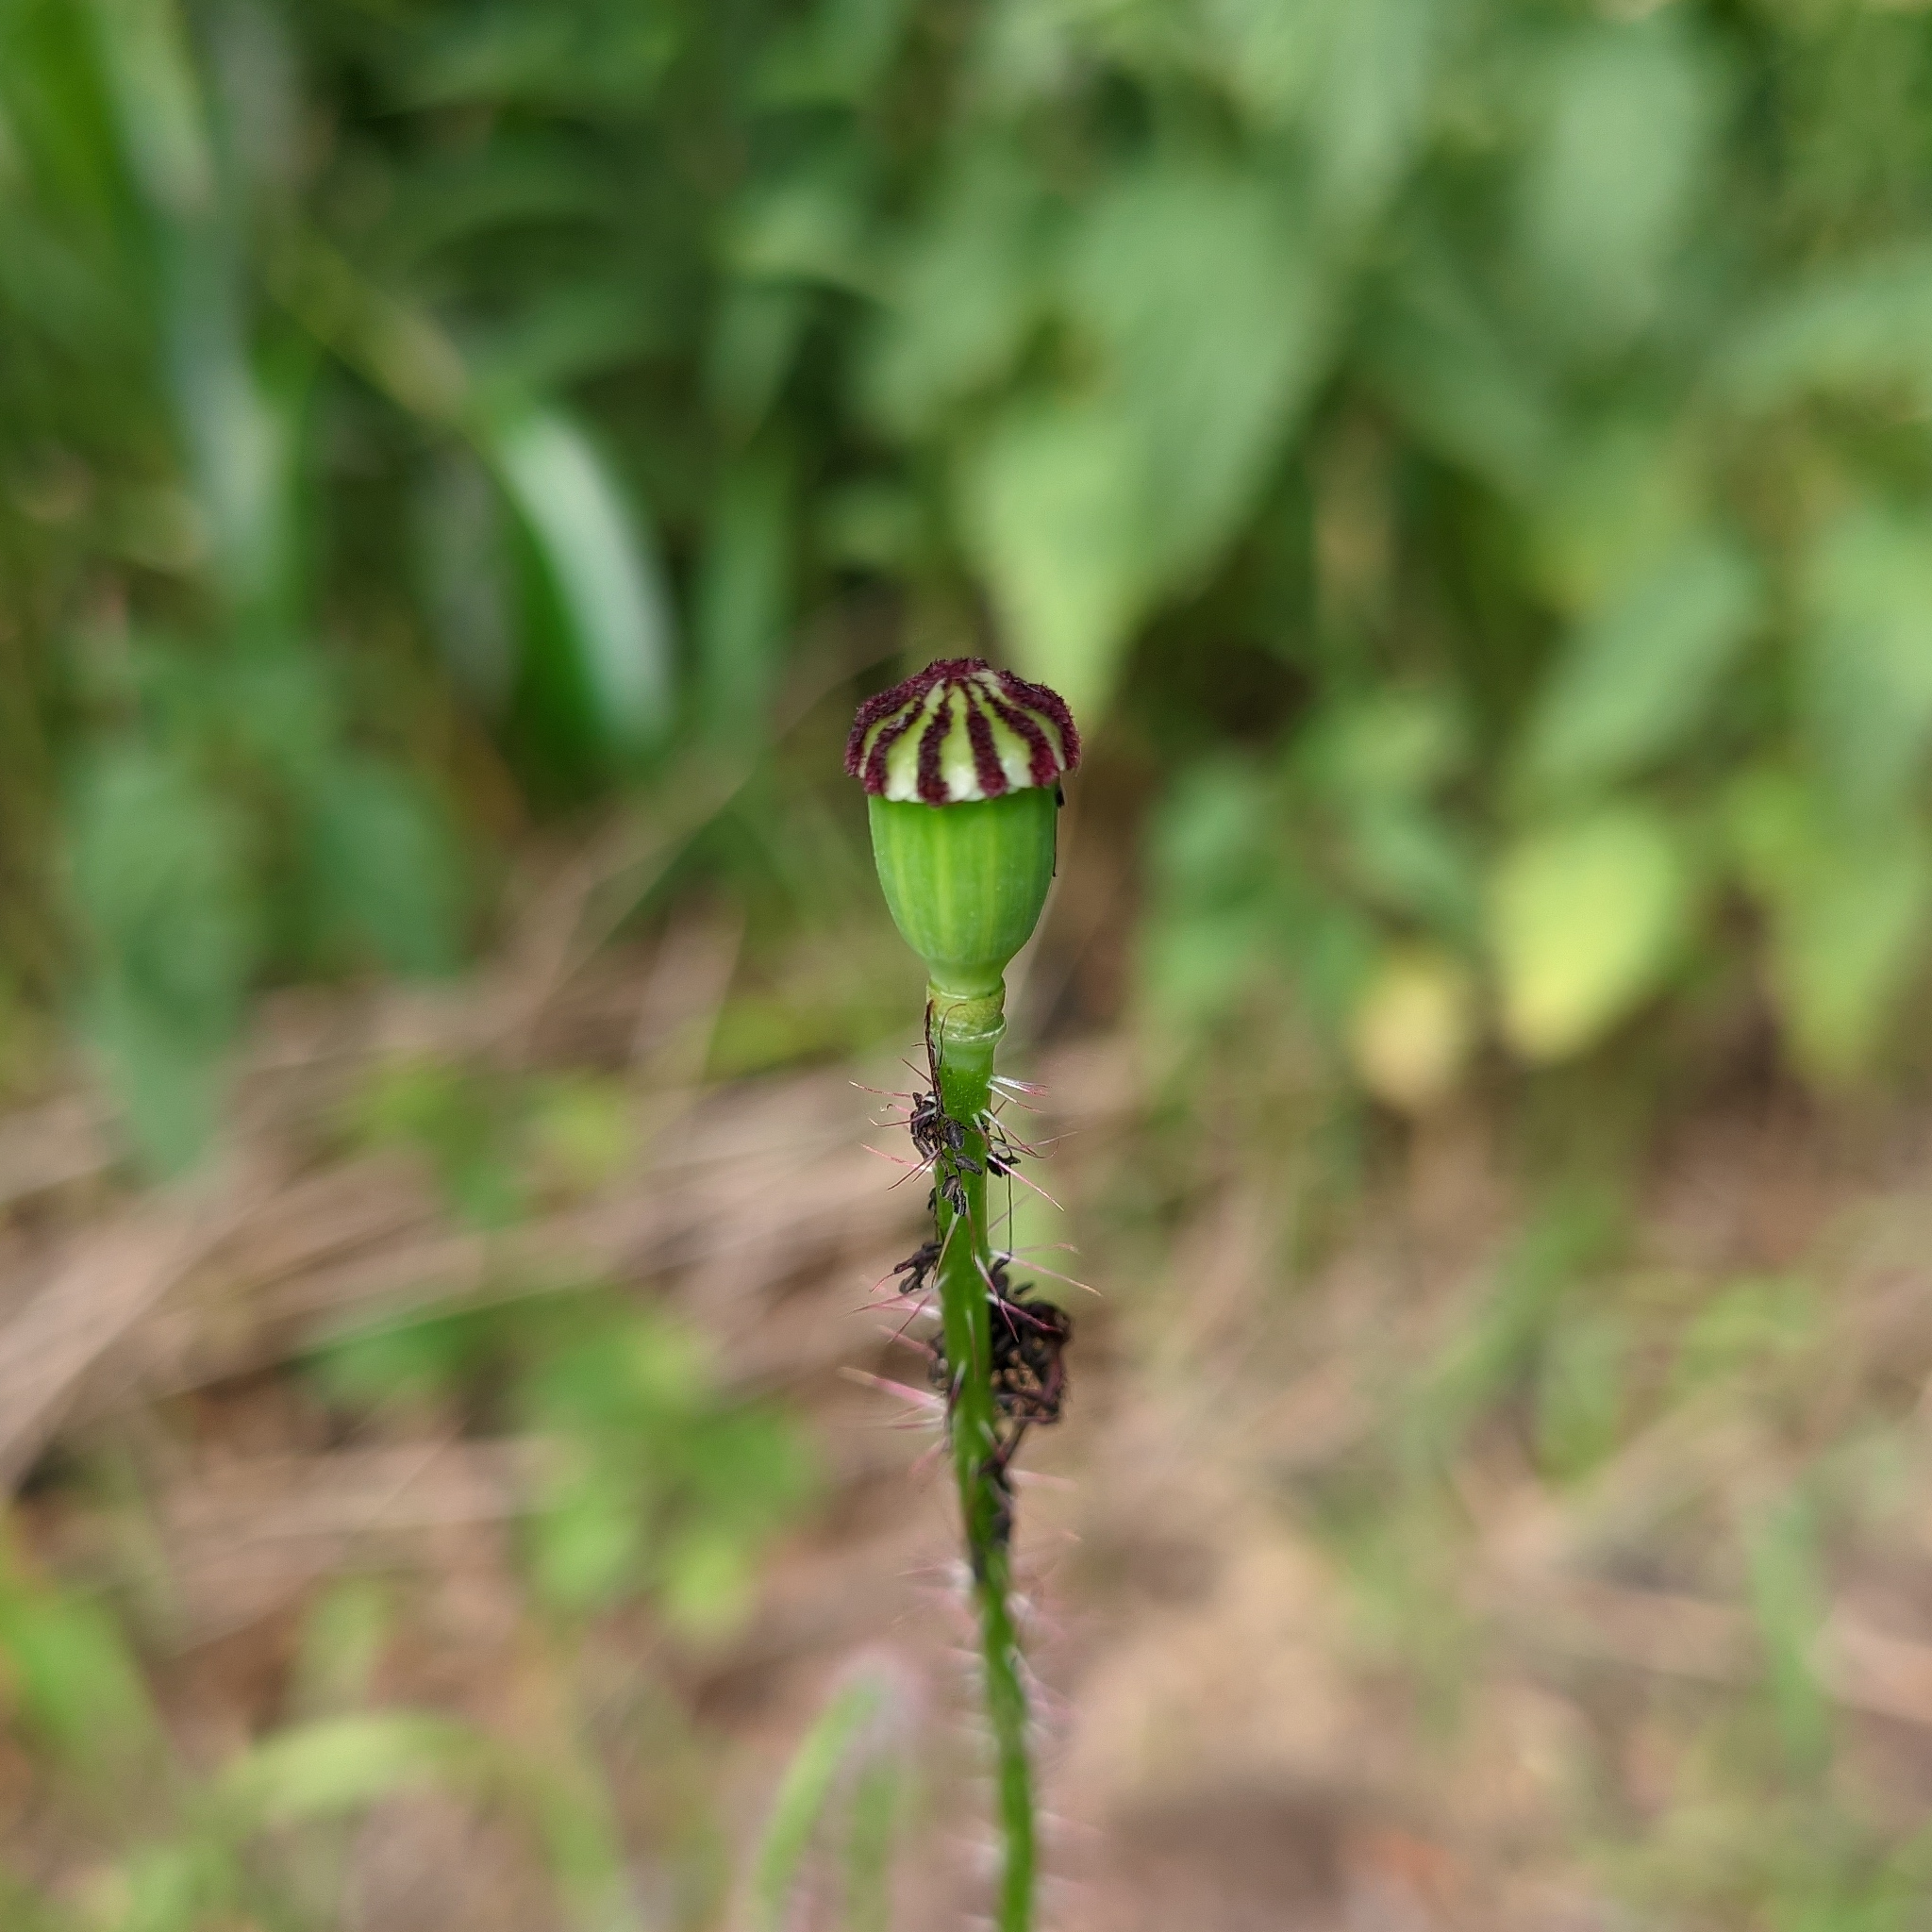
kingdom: Plantae
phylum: Tracheophyta
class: Magnoliopsida
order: Ranunculales
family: Papaveraceae
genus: Papaver
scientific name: Papaver rhoeas
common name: Corn poppy
